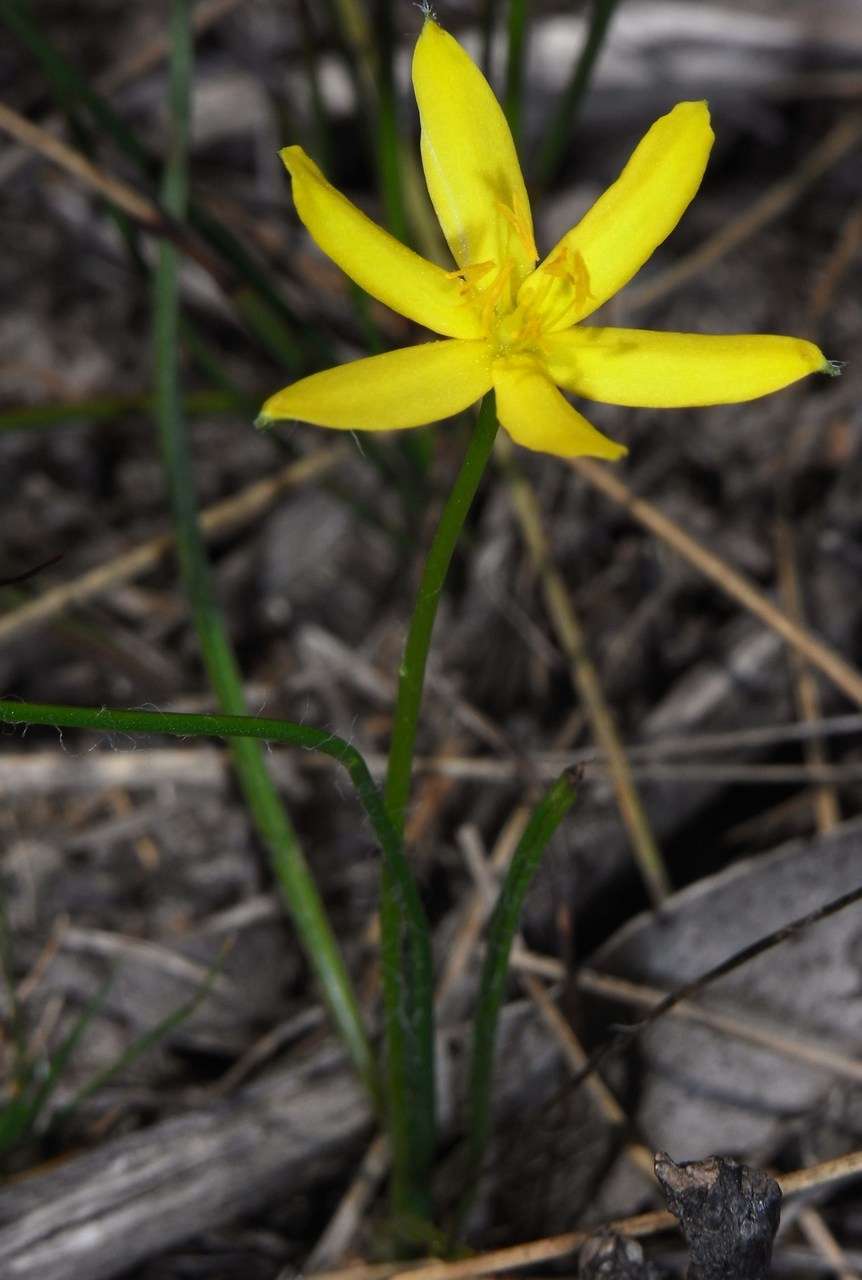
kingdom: Plantae
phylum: Tracheophyta
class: Liliopsida
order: Asparagales
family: Hypoxidaceae
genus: Hypoxis
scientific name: Hypoxis hygrometrica
